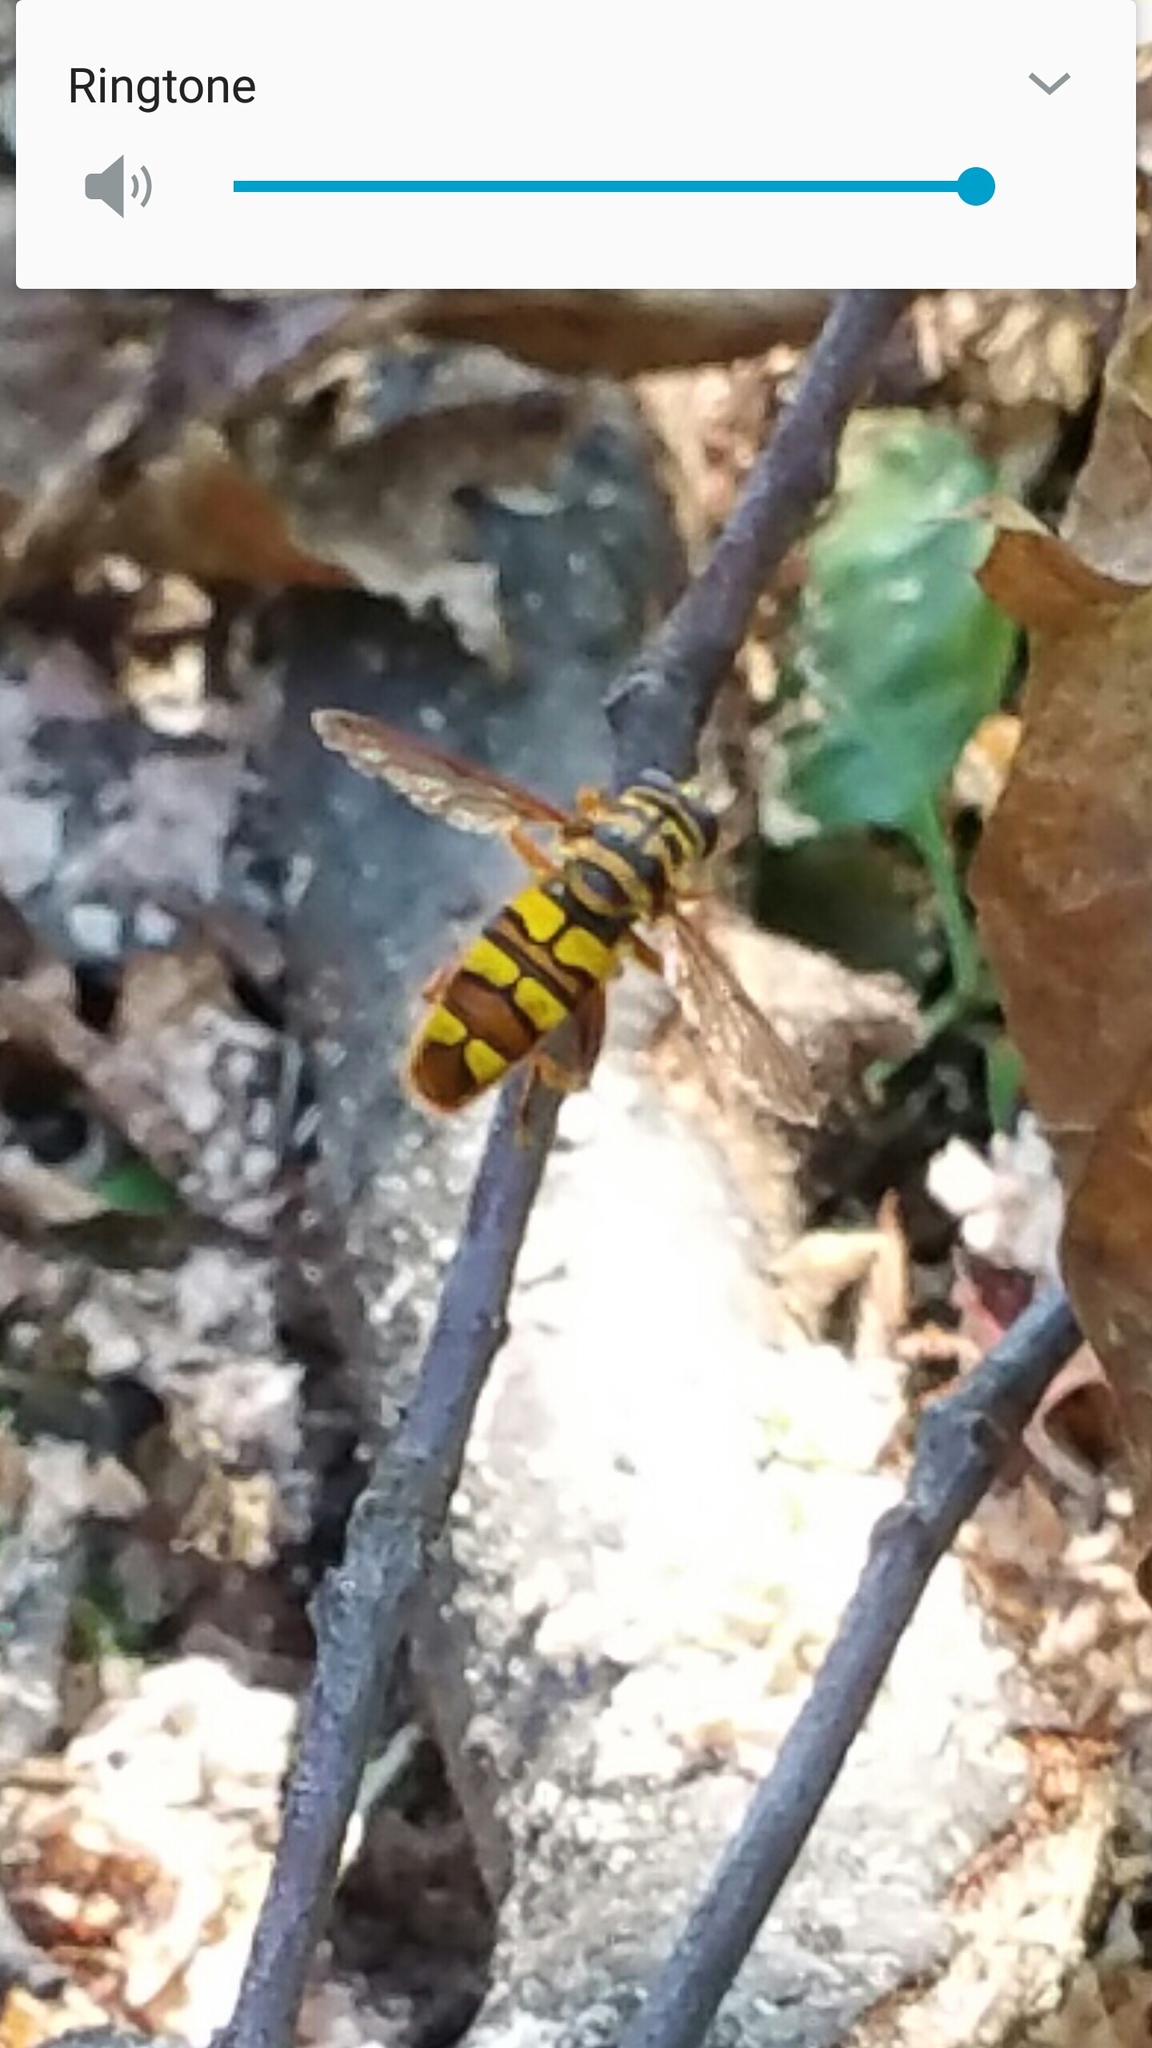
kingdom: Animalia
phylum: Arthropoda
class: Insecta
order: Diptera
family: Syrphidae
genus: Milesia
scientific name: Milesia virginiensis
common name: Virginia giant
